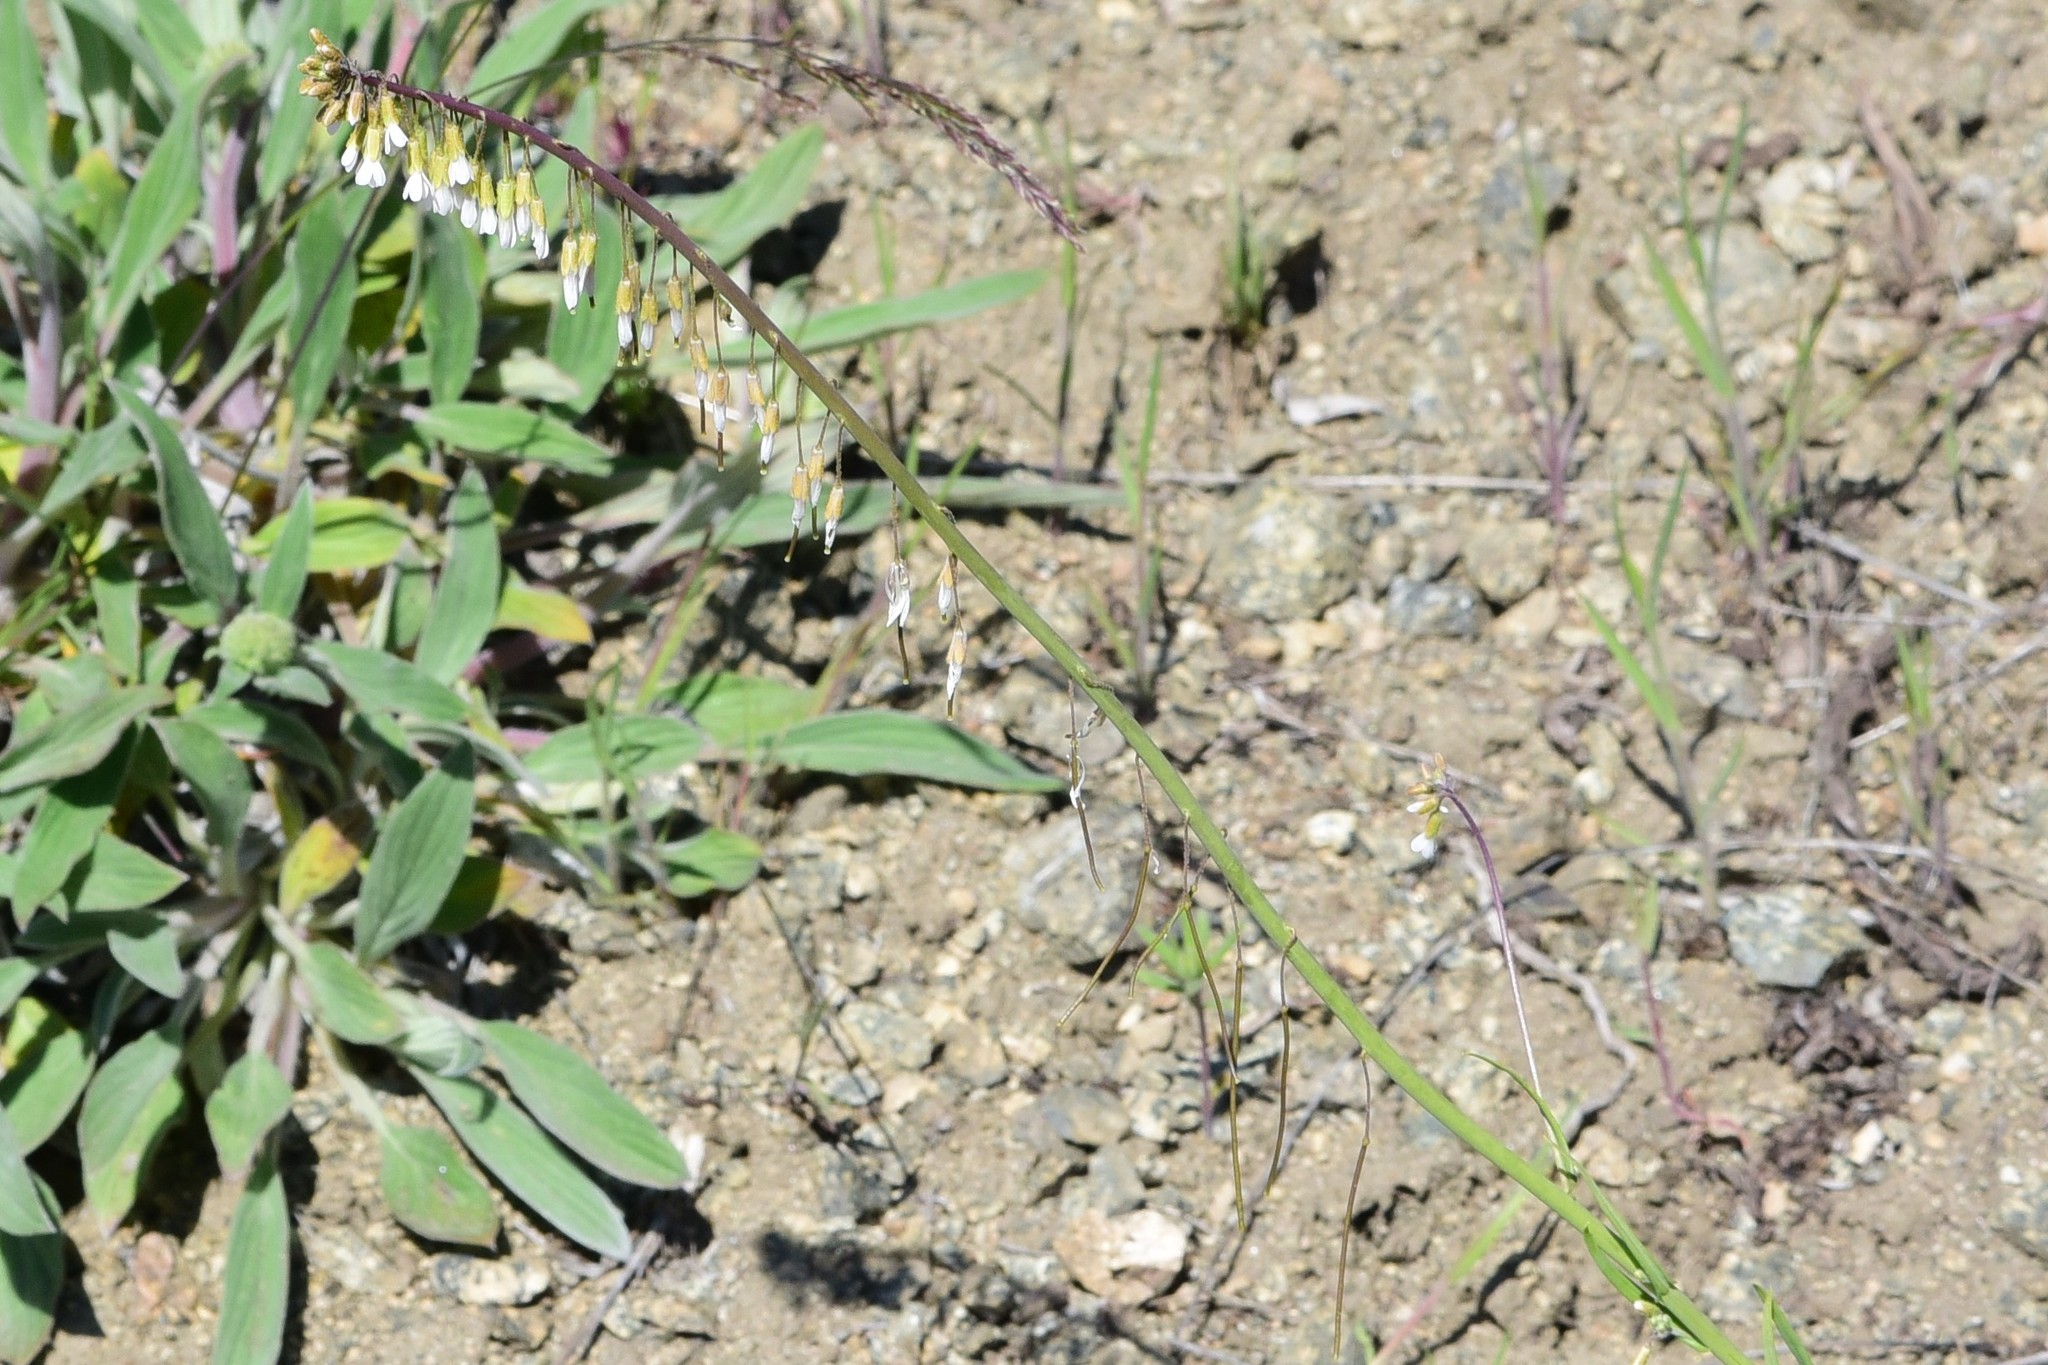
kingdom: Plantae
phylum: Tracheophyta
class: Magnoliopsida
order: Brassicales
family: Brassicaceae
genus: Boechera
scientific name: Boechera retrofracta
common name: Dangling suncress
